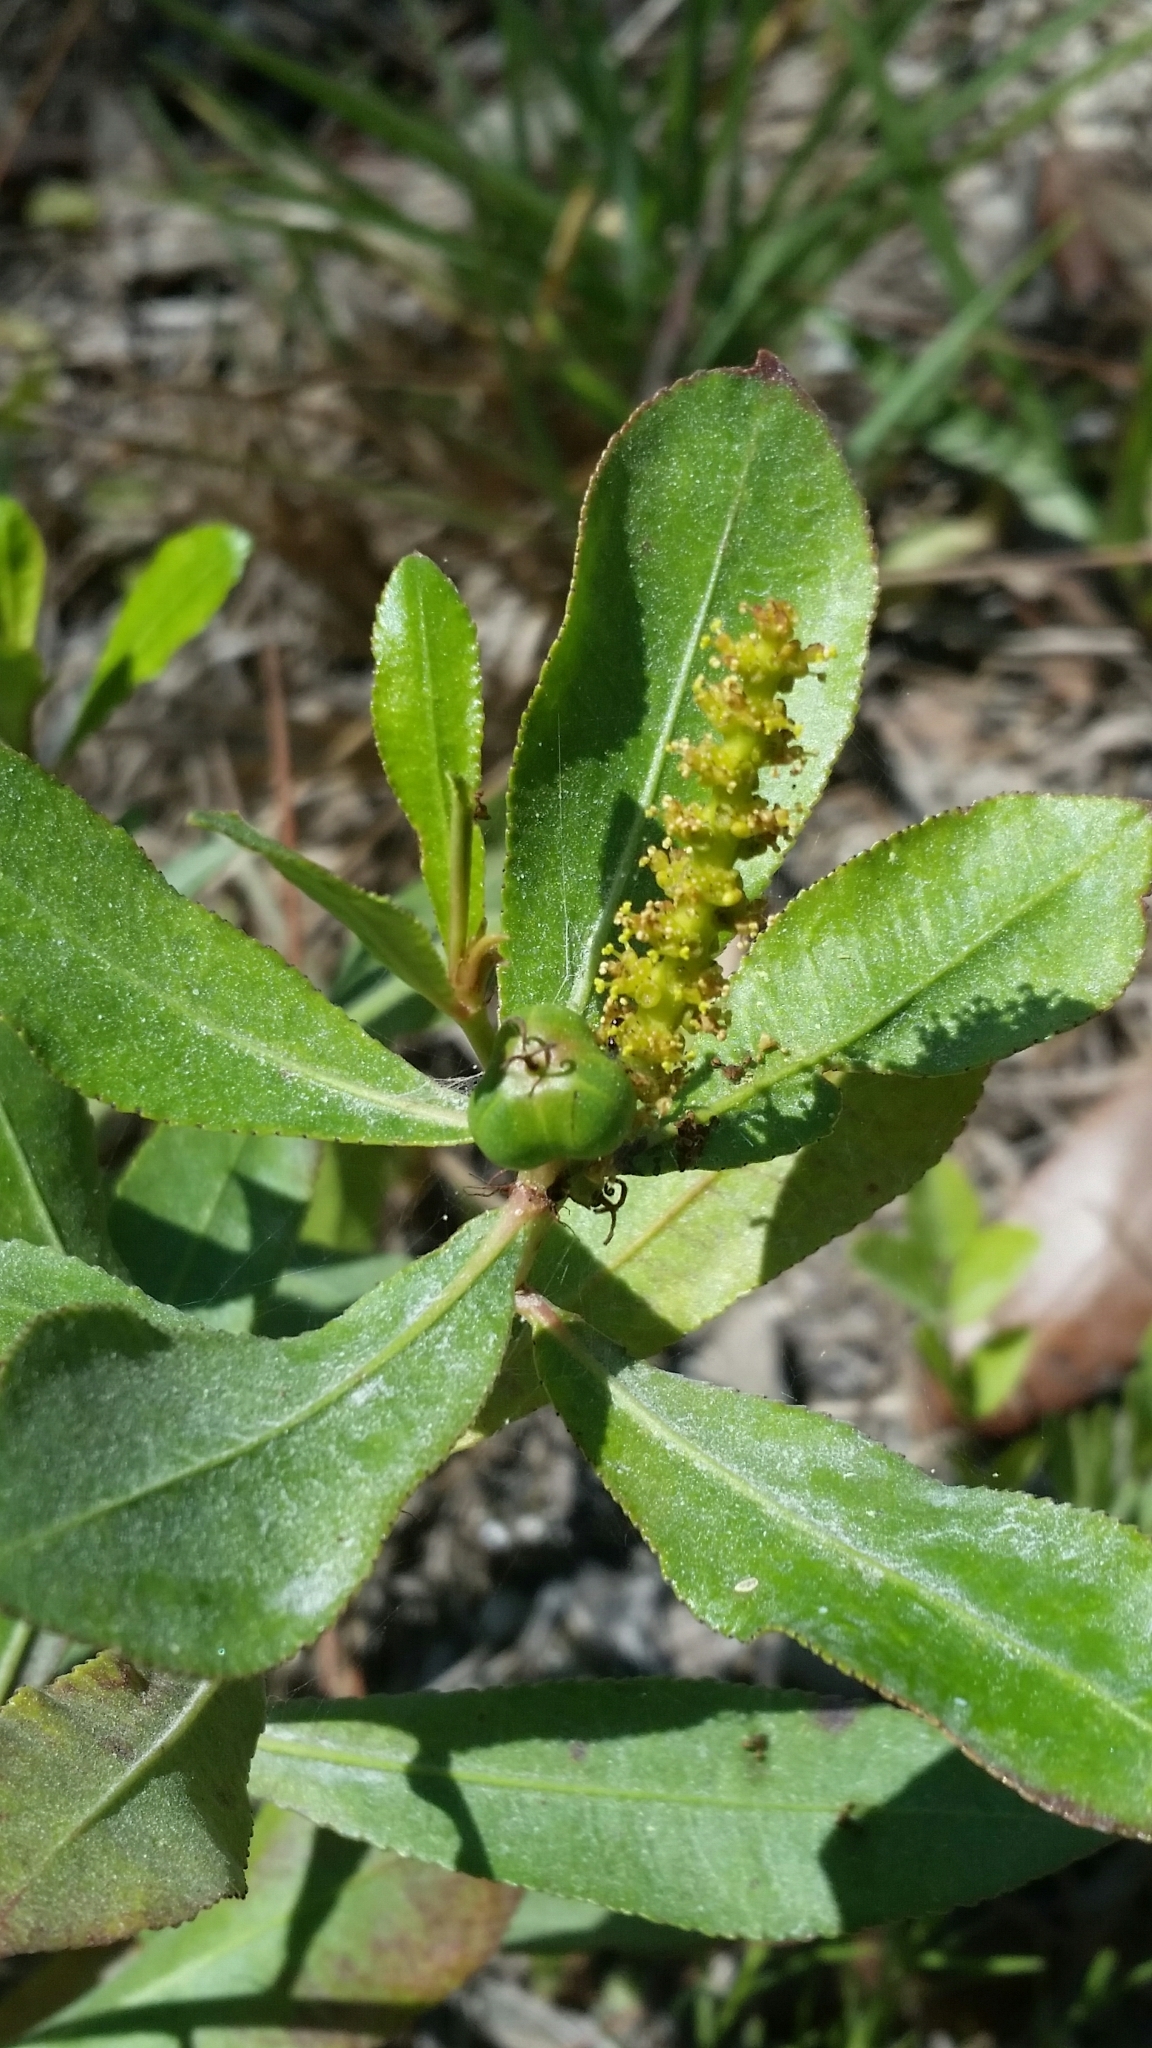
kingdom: Plantae
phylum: Tracheophyta
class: Magnoliopsida
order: Malpighiales
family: Euphorbiaceae
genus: Stillingia
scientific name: Stillingia sylvatica
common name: Queen's-delight
